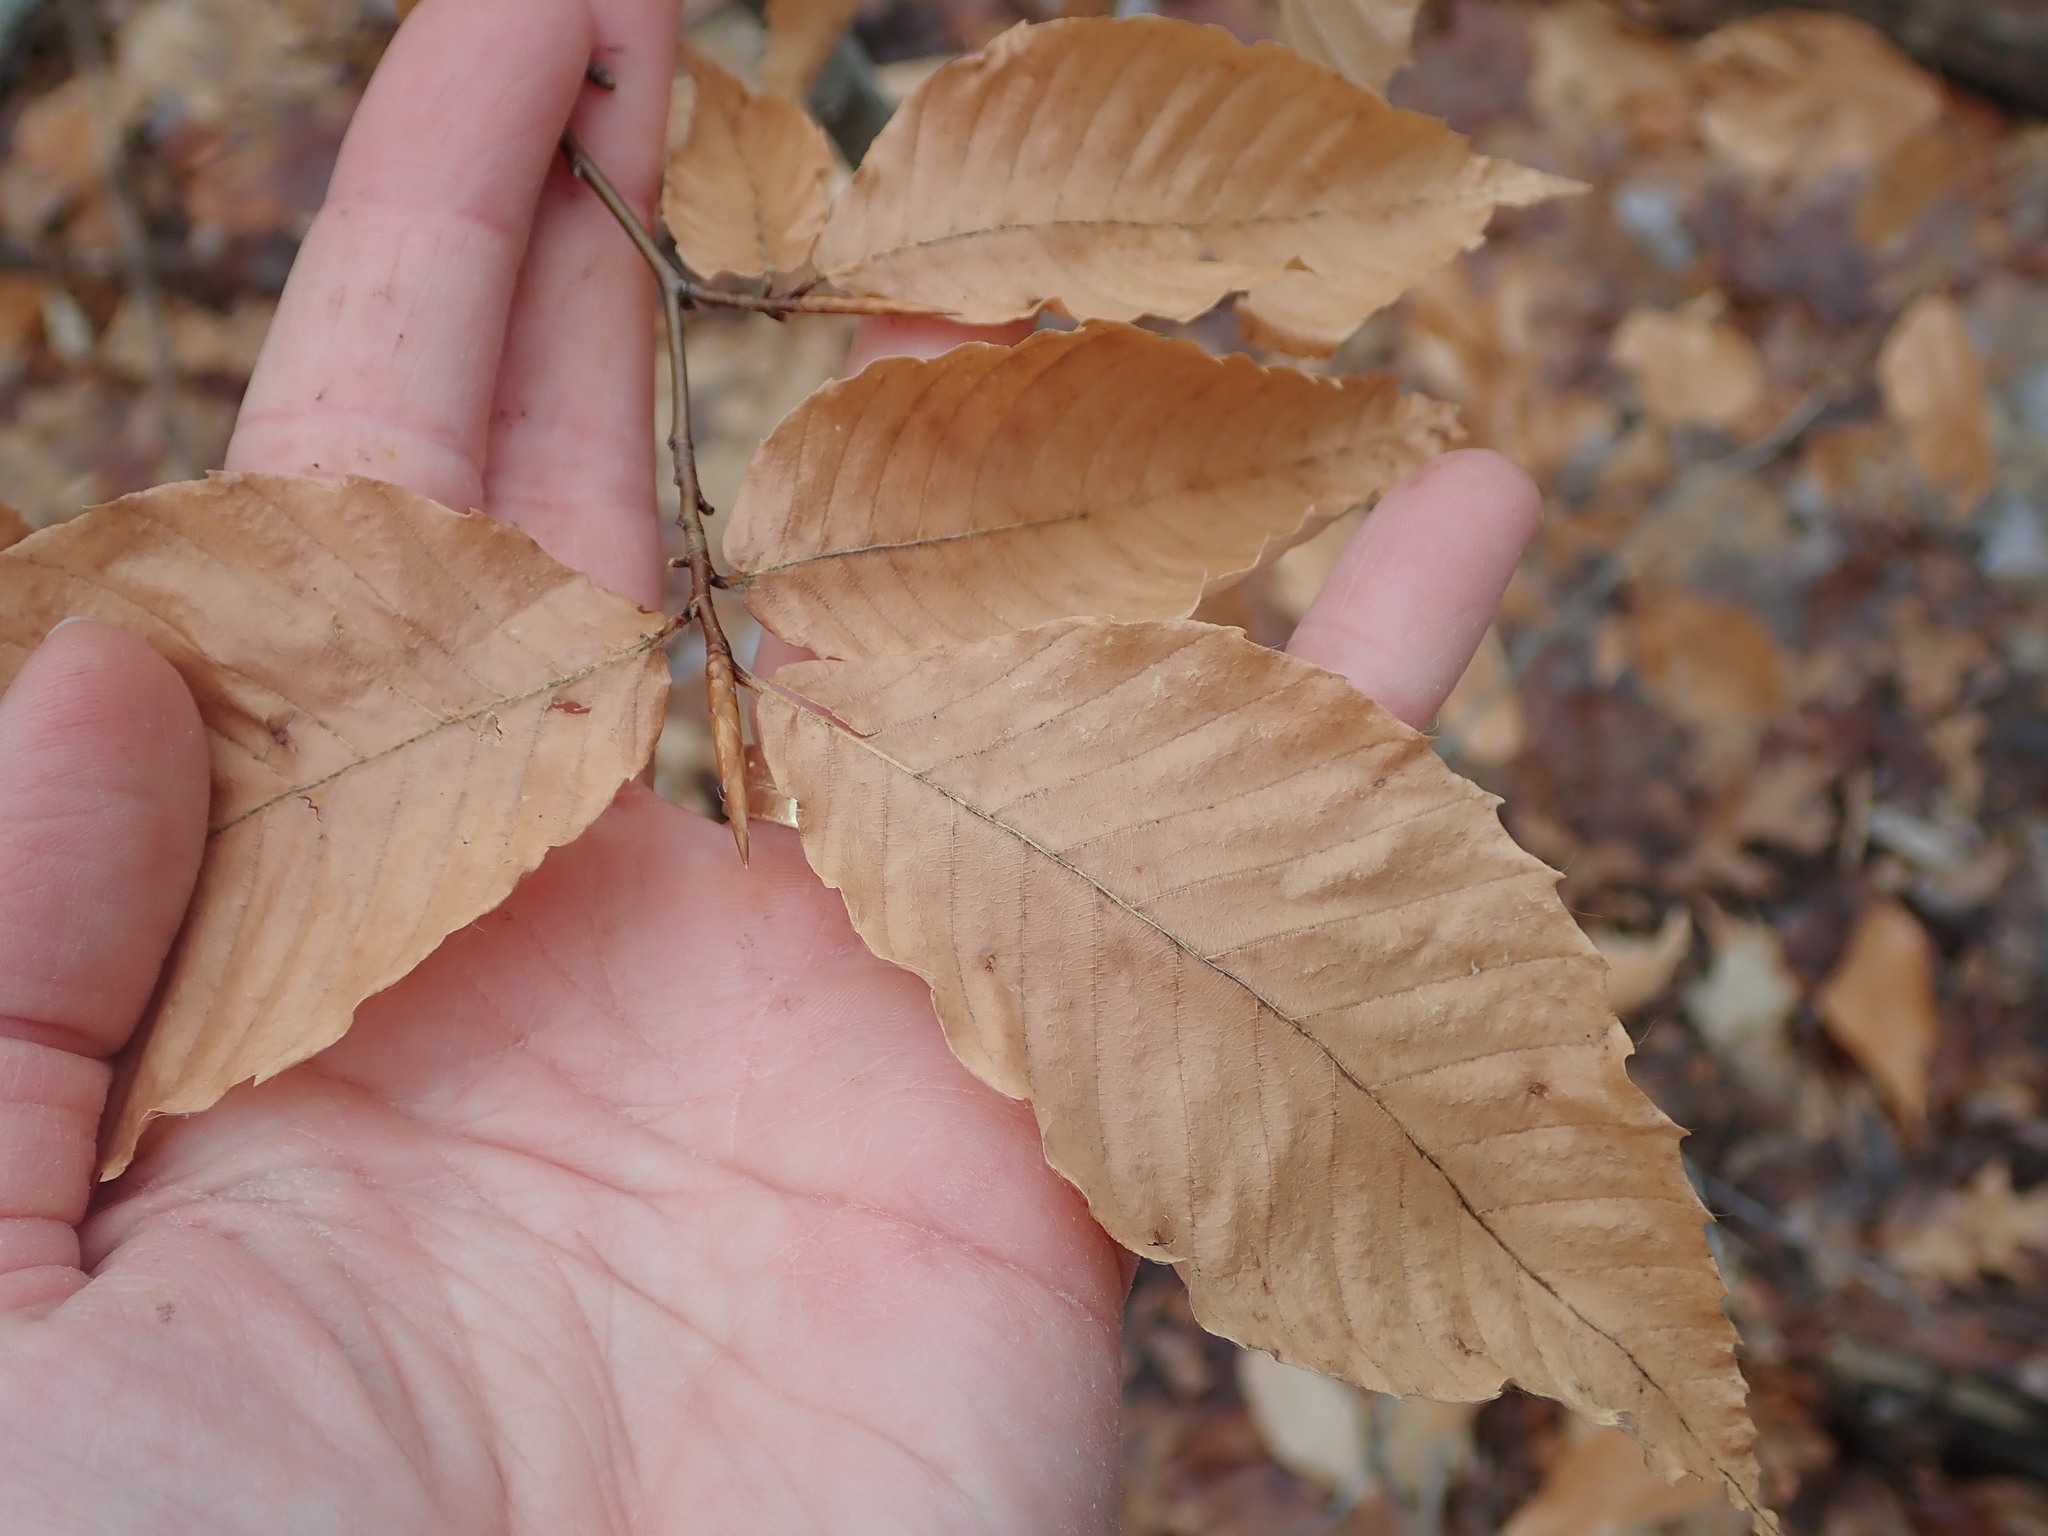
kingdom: Plantae
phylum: Tracheophyta
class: Magnoliopsida
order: Fagales
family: Fagaceae
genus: Fagus
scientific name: Fagus grandifolia
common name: American beech
